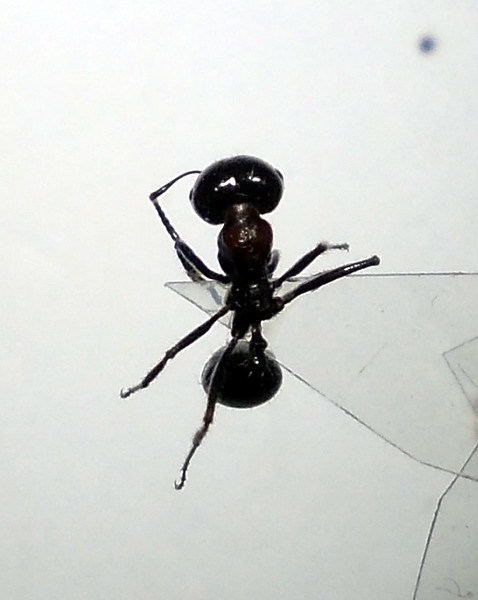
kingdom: Animalia
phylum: Arthropoda
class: Insecta
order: Hymenoptera
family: Formicidae
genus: Messor
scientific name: Messor denticulatus
